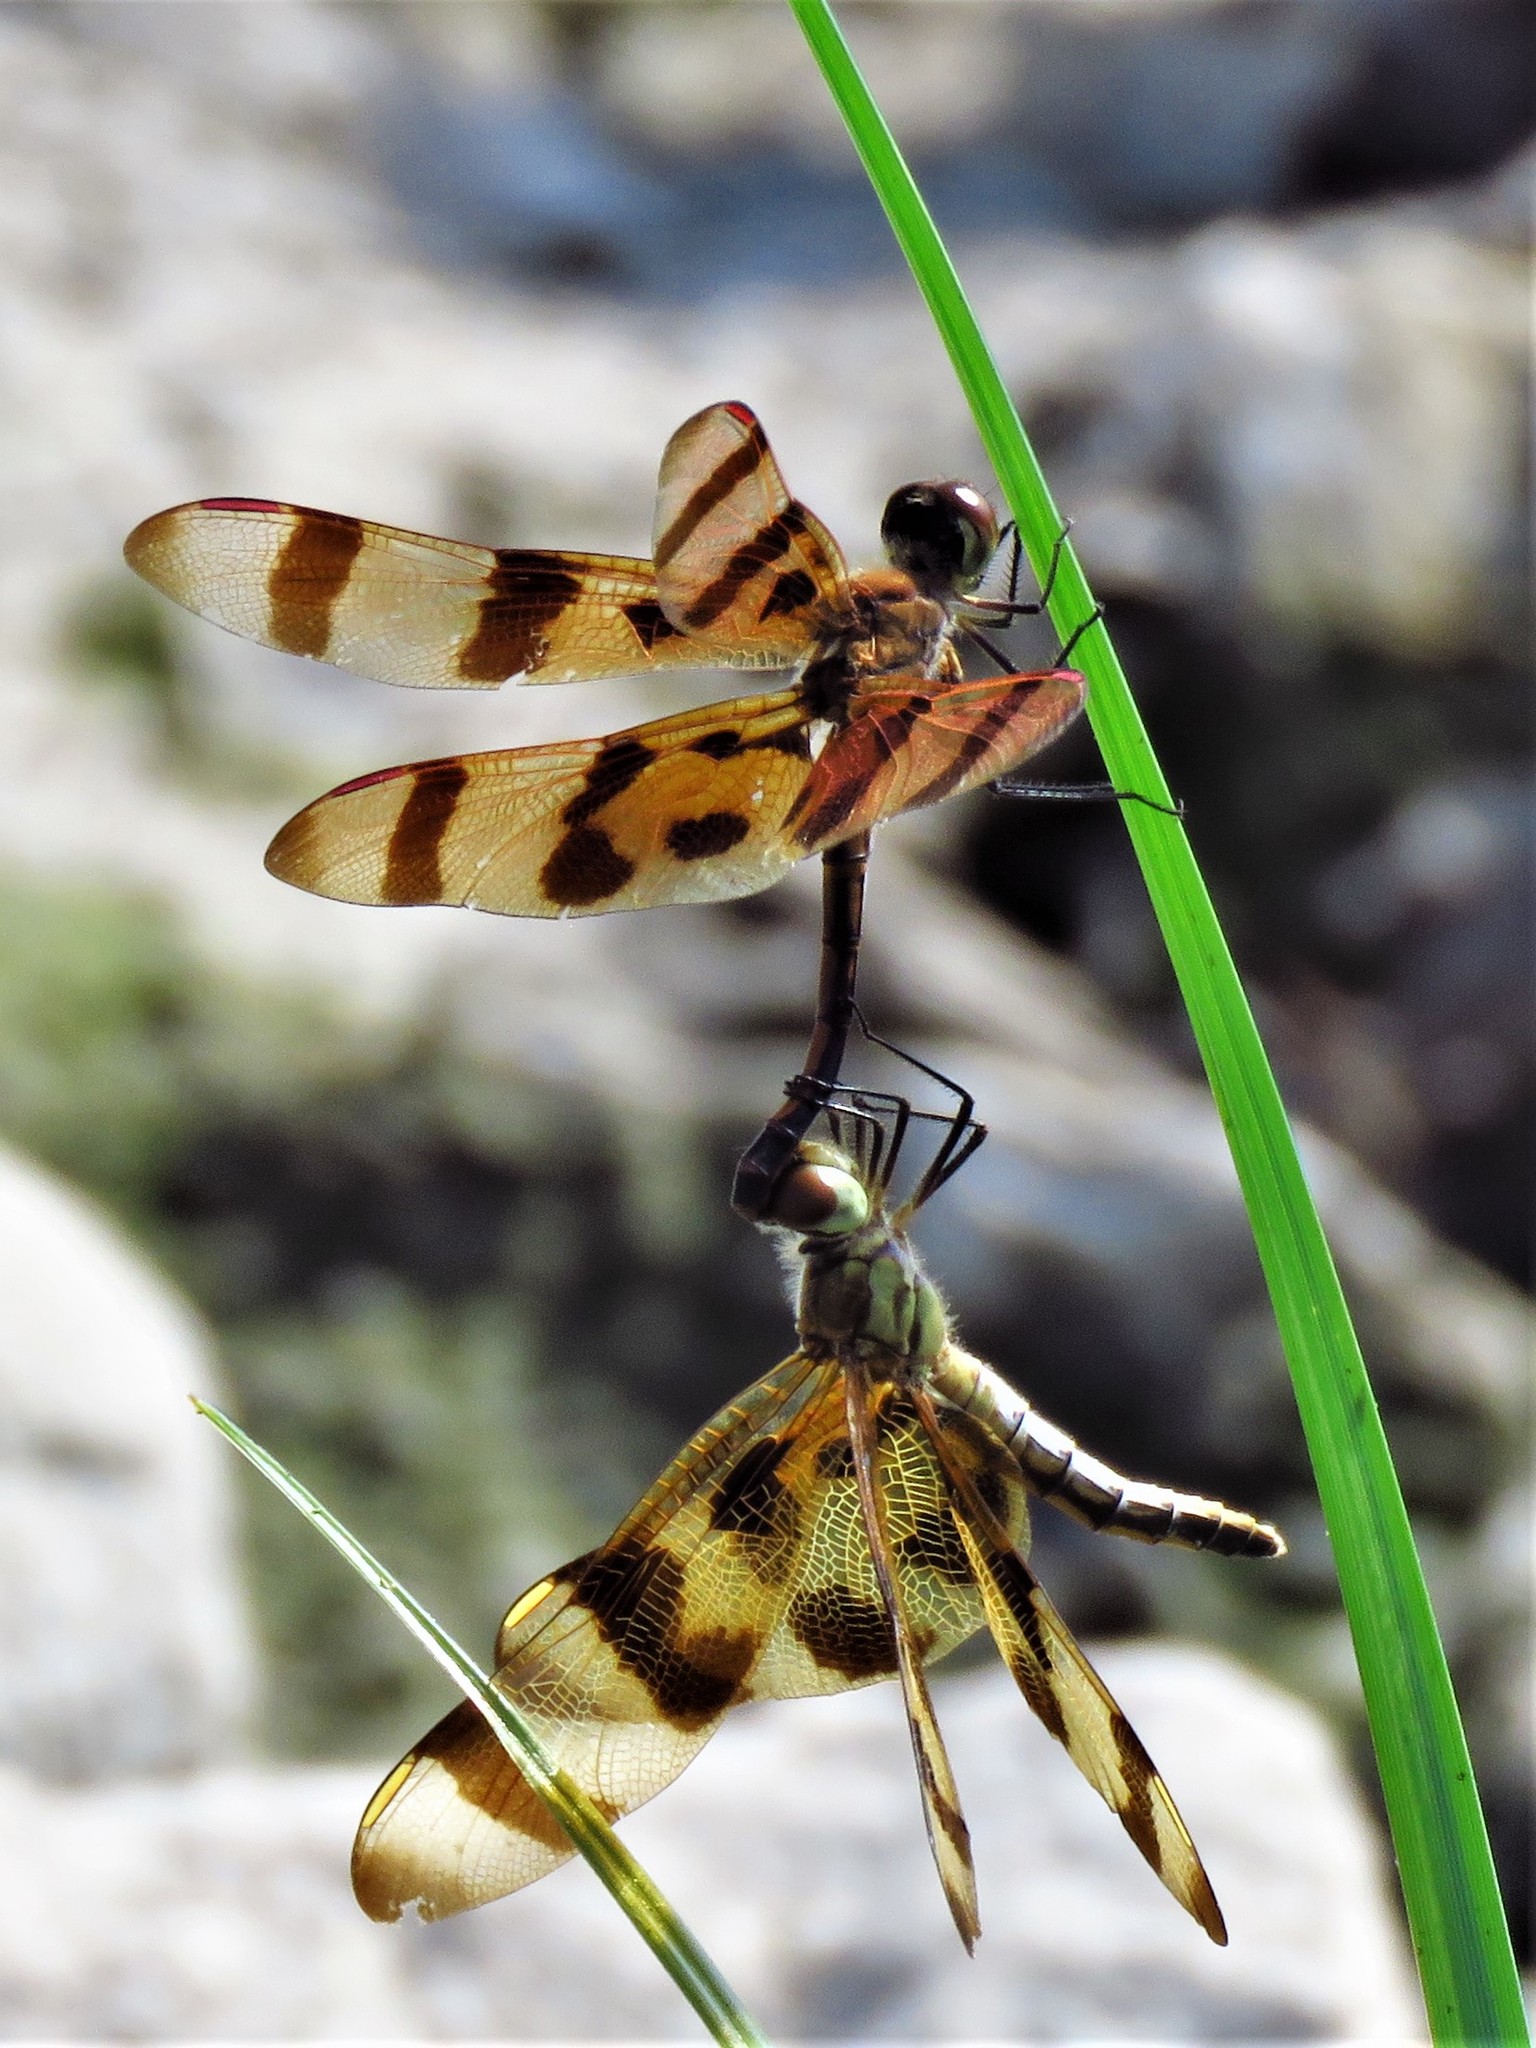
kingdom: Animalia
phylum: Arthropoda
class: Insecta
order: Odonata
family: Libellulidae
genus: Celithemis
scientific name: Celithemis eponina
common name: Halloween pennant
